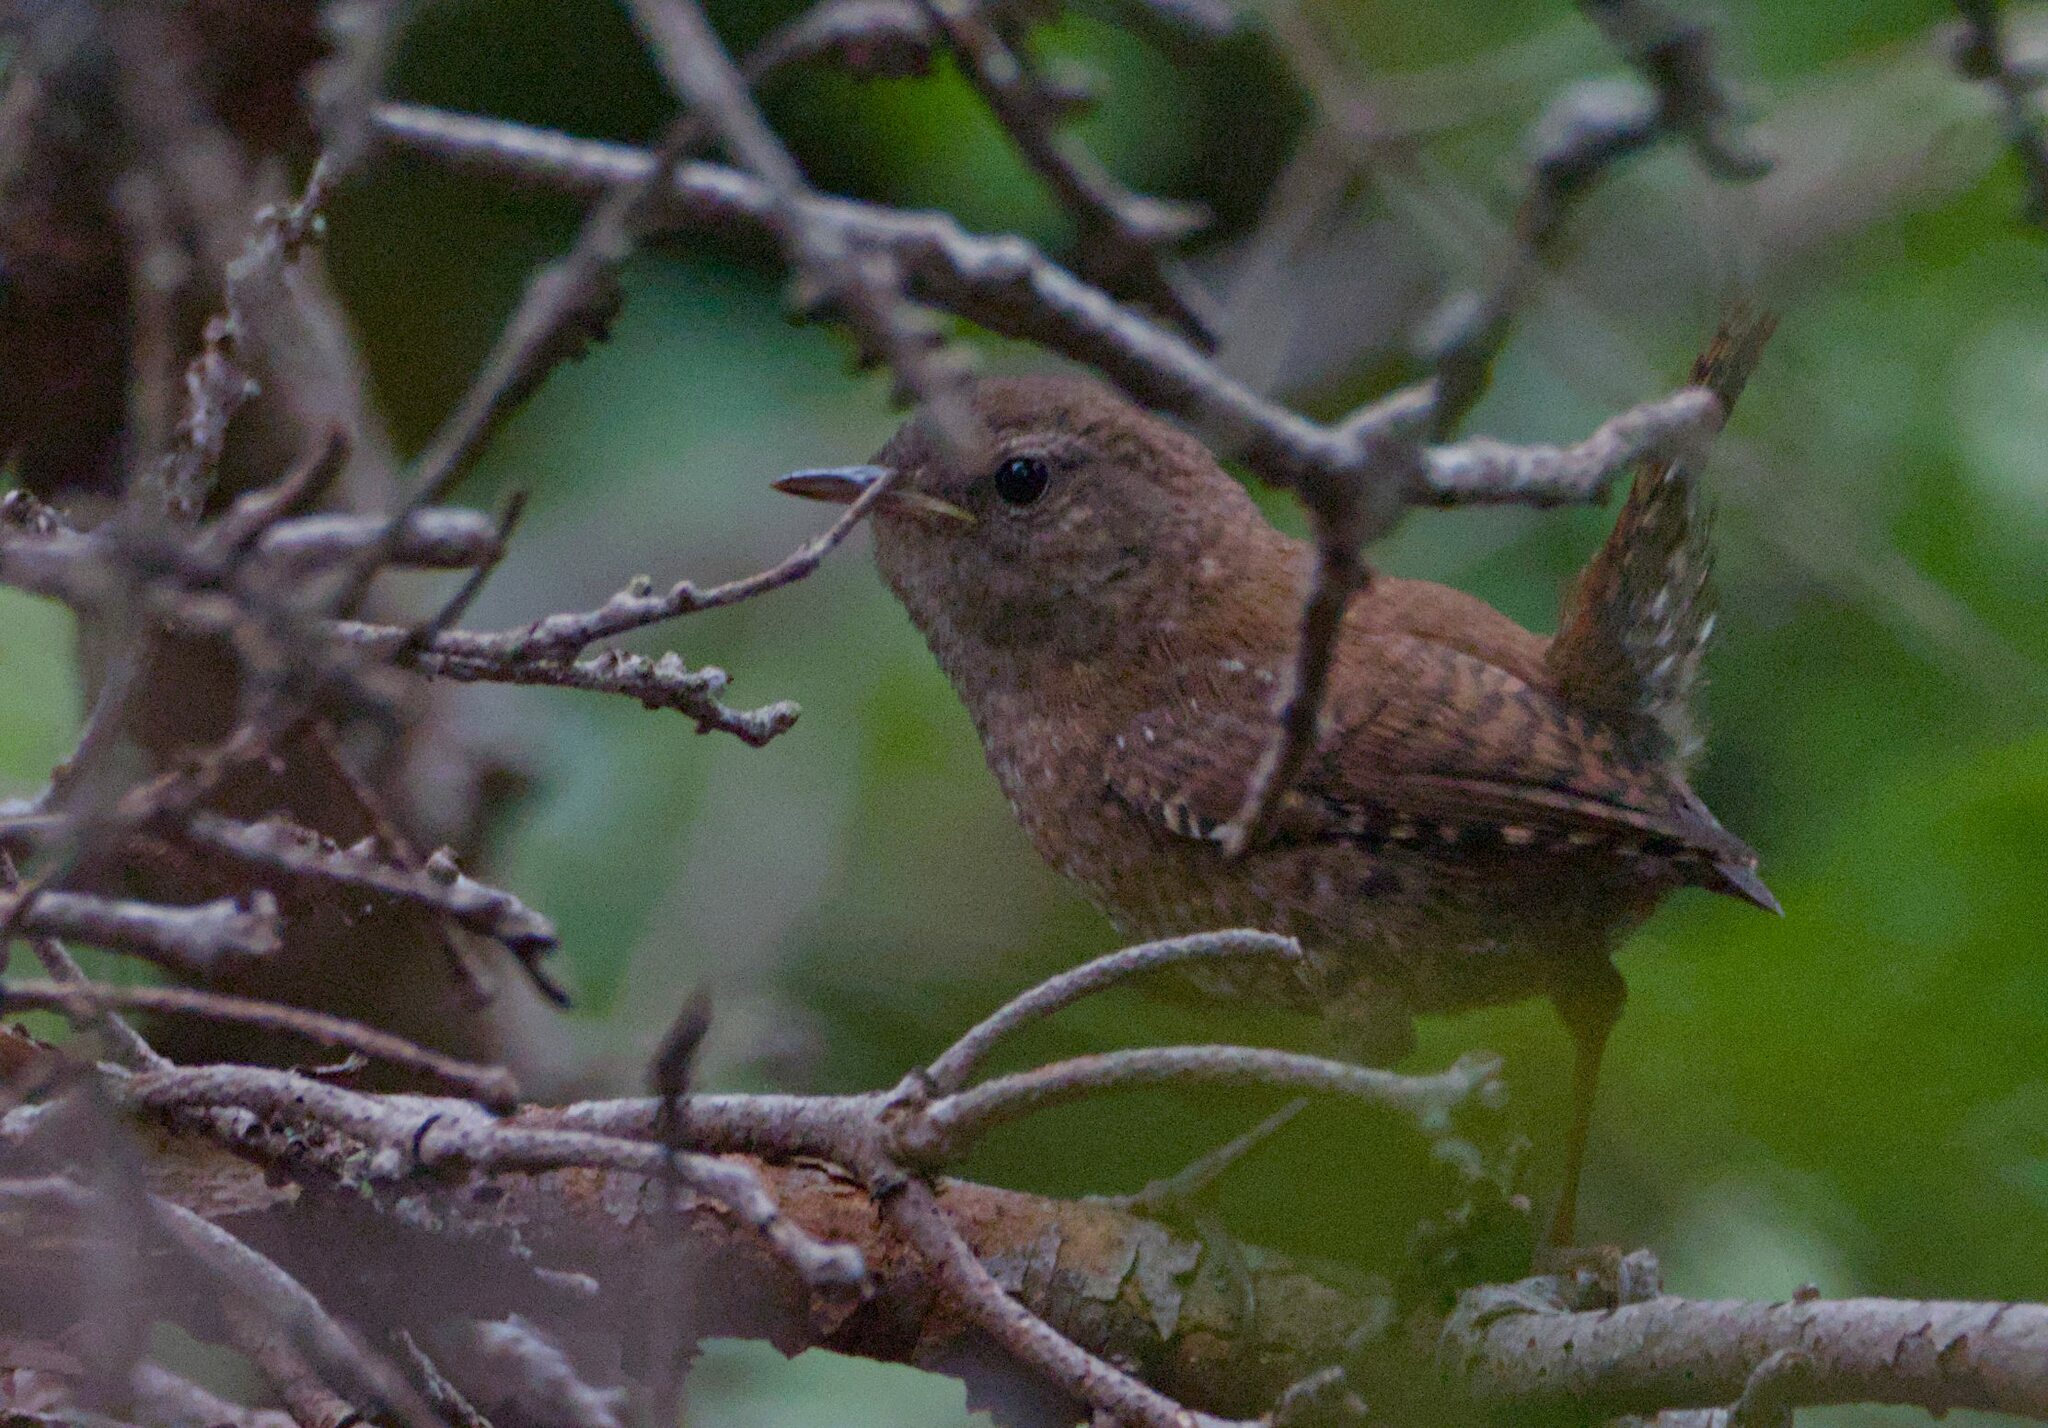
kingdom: Animalia
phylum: Chordata
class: Aves
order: Passeriformes
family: Troglodytidae
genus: Troglodytes
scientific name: Troglodytes hiemalis
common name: Winter wren
